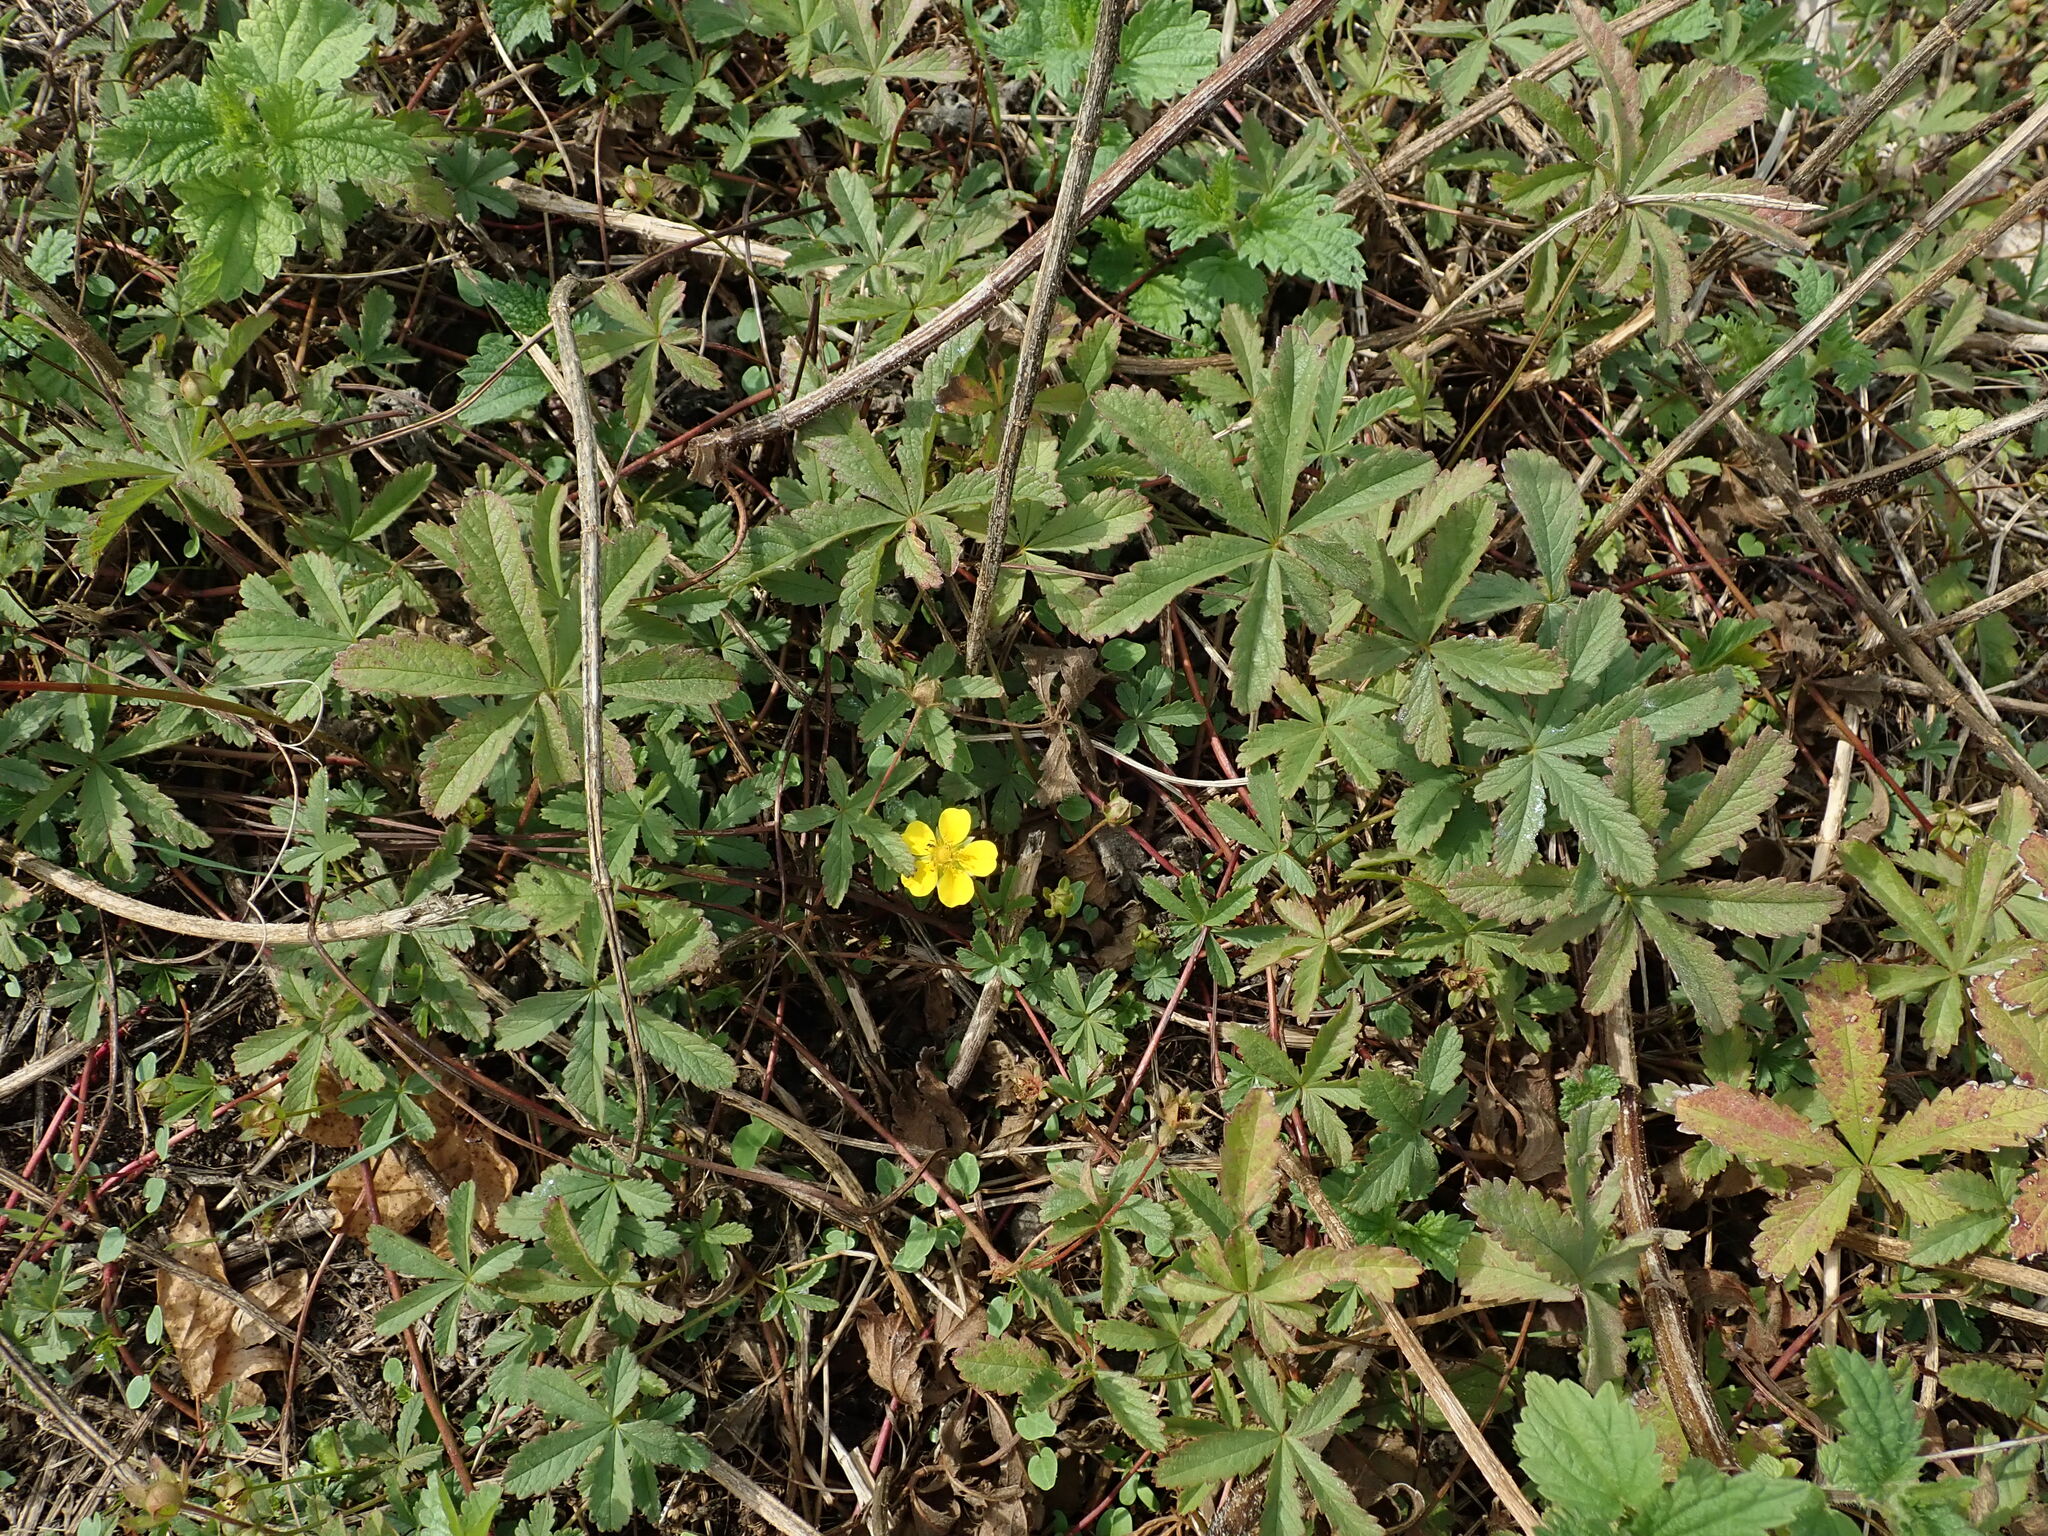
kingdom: Plantae
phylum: Tracheophyta
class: Magnoliopsida
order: Rosales
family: Rosaceae
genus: Potentilla
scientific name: Potentilla reptans
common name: Creeping cinquefoil
